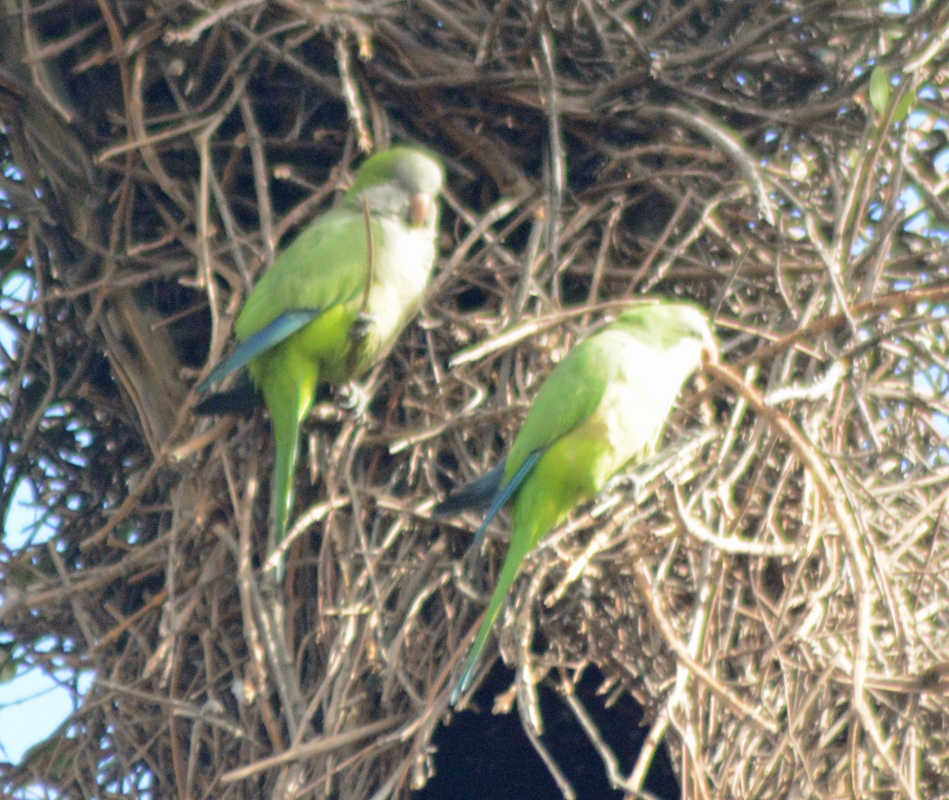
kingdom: Animalia
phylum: Chordata
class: Aves
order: Psittaciformes
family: Psittacidae
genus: Myiopsitta
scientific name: Myiopsitta monachus
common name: Monk parakeet
